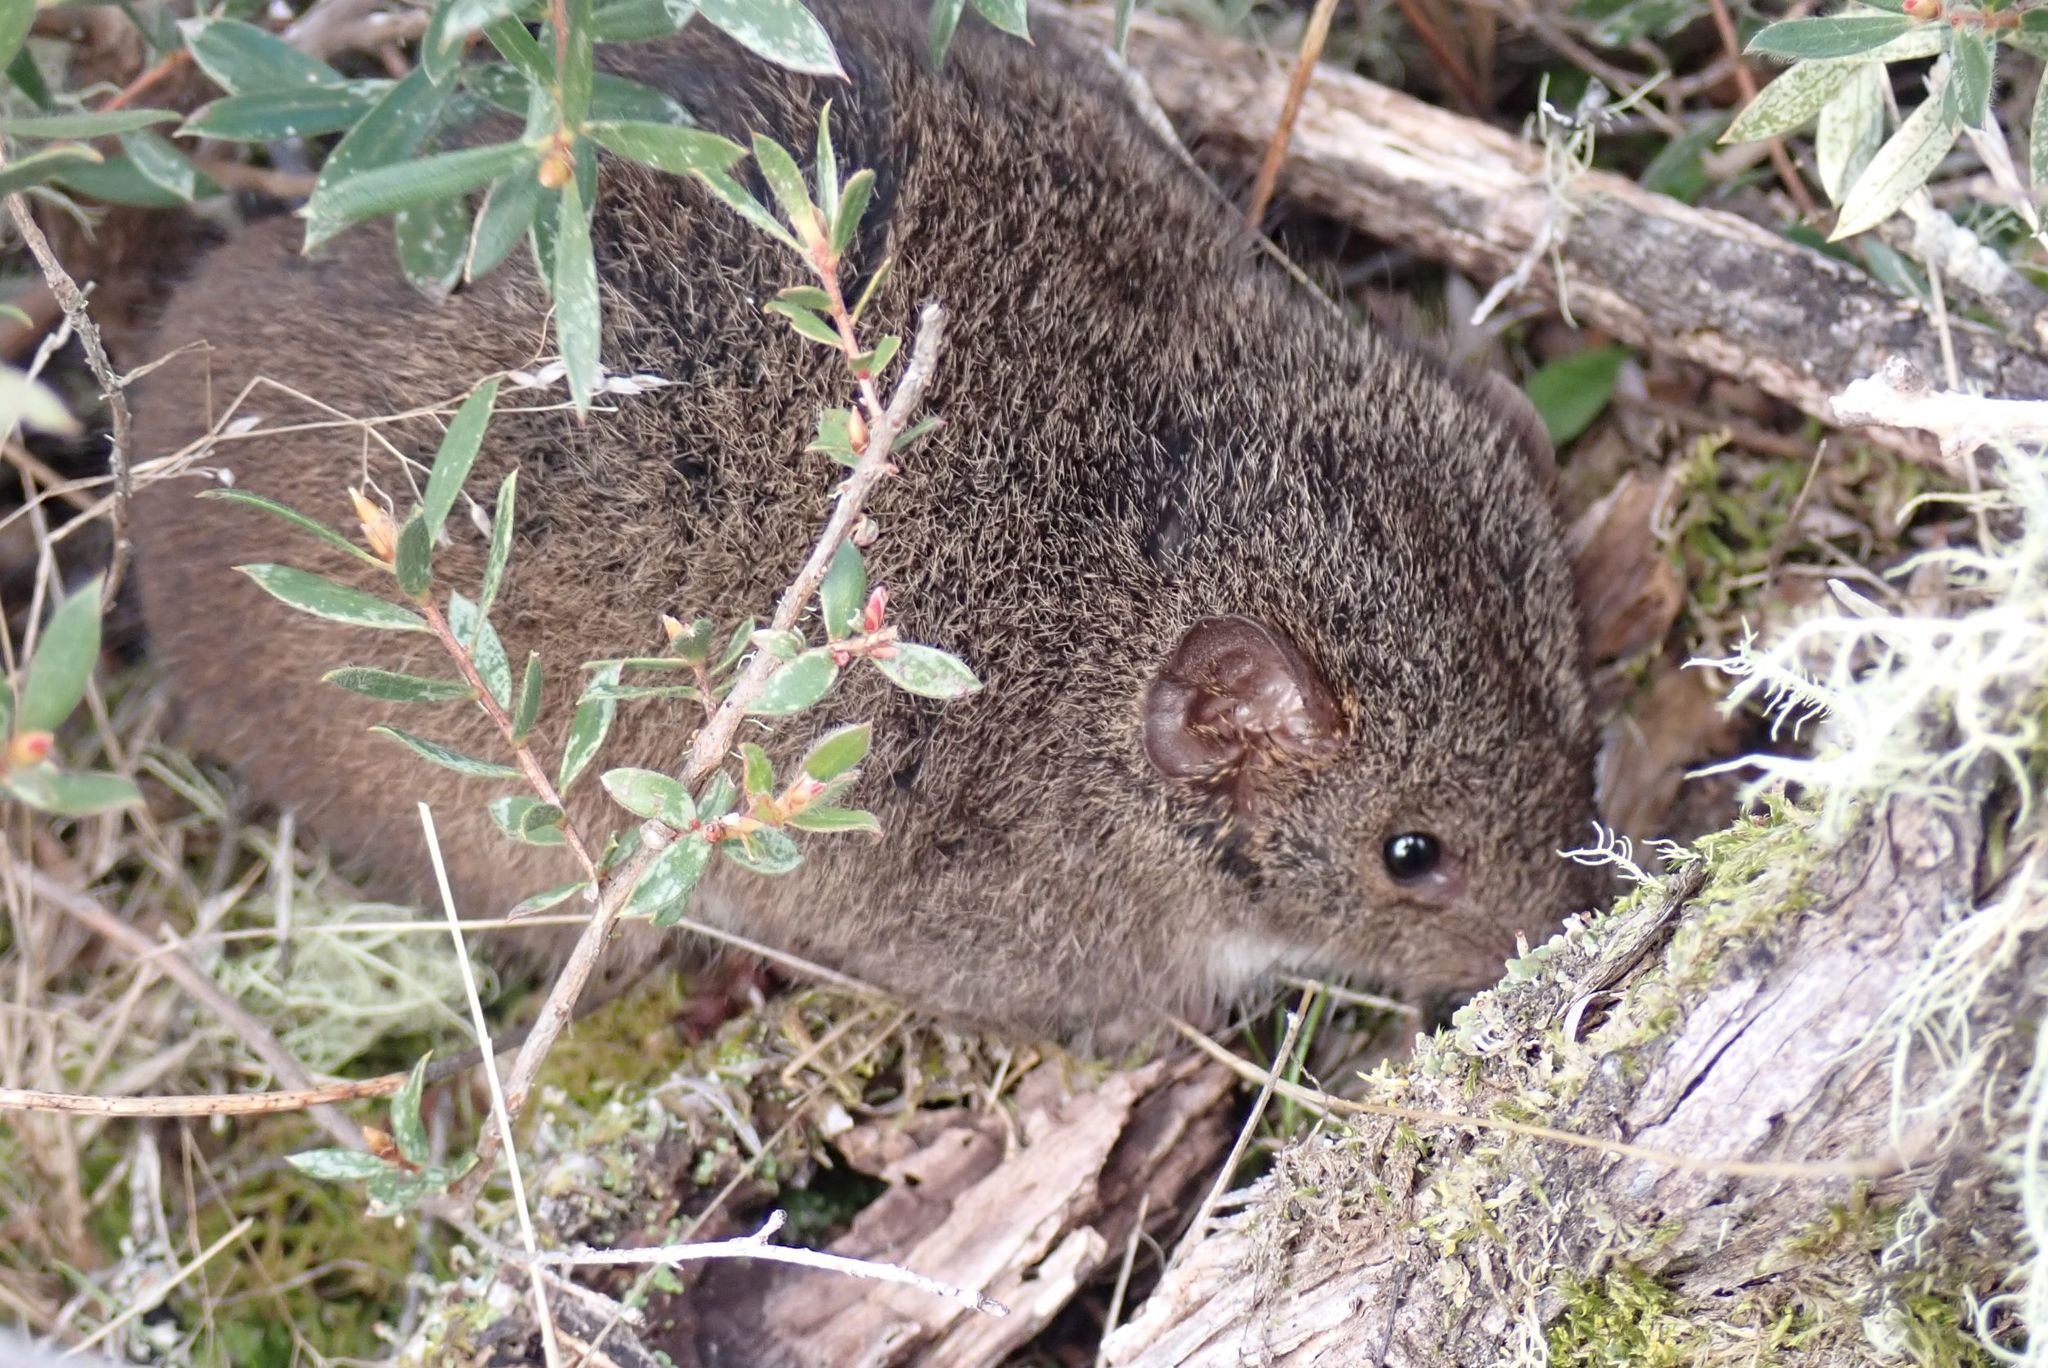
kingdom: Animalia
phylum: Chordata
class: Mammalia
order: Dasyuromorphia
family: Dasyuridae
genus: Antechinus
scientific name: Antechinus
